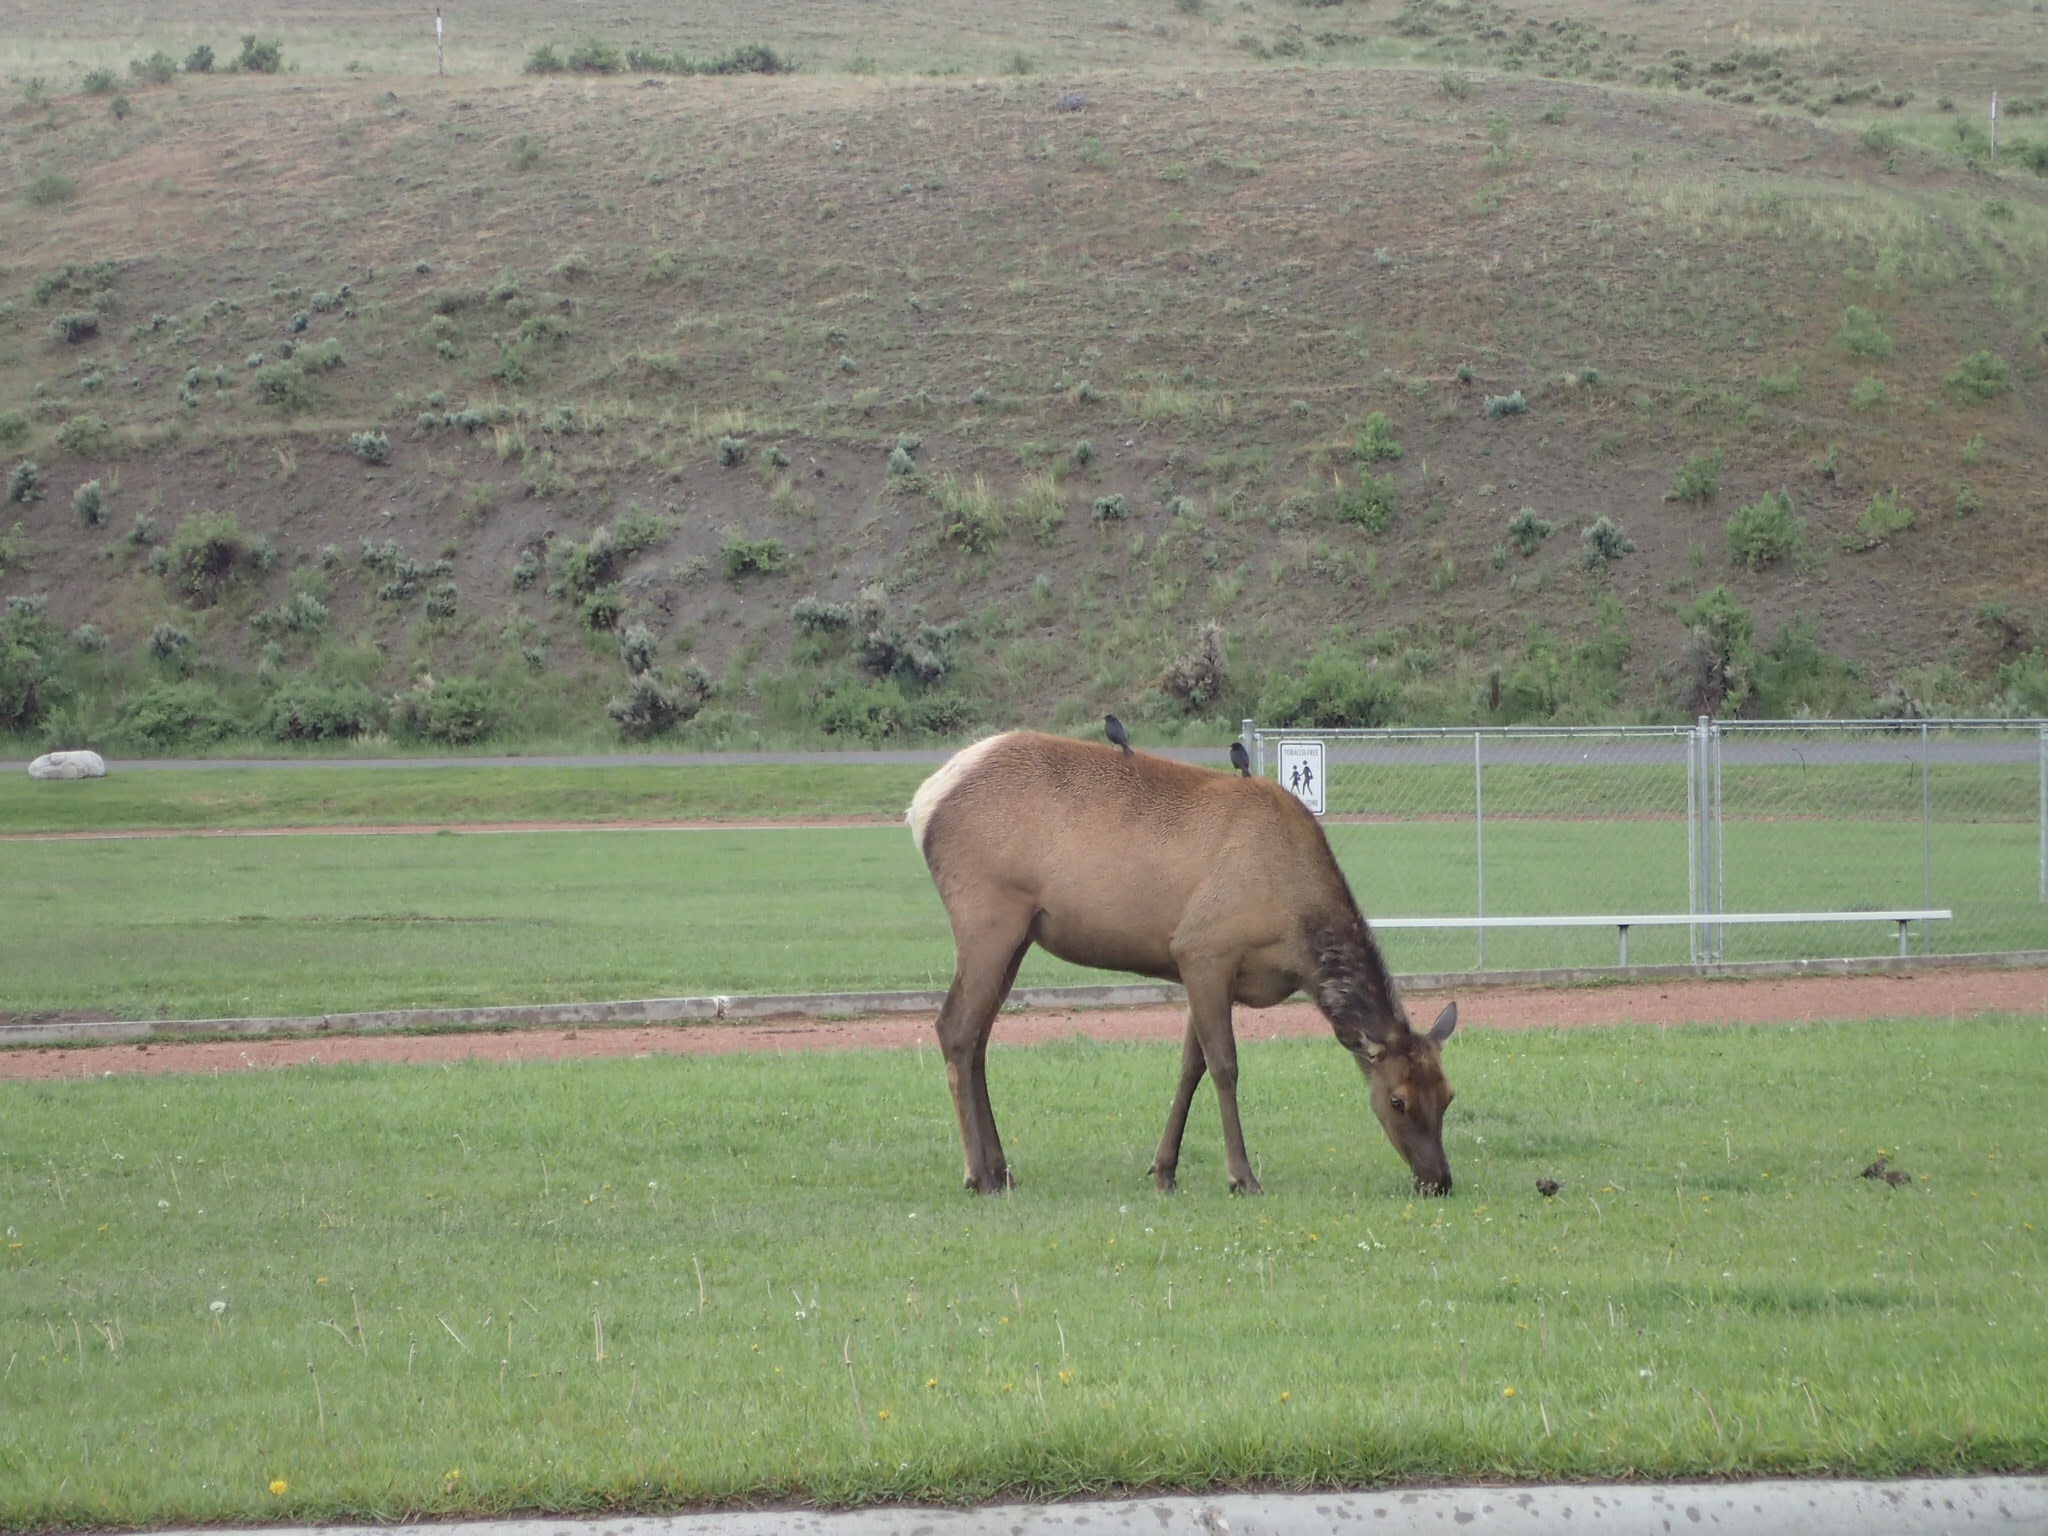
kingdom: Animalia
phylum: Chordata
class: Mammalia
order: Artiodactyla
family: Cervidae
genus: Cervus
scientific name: Cervus elaphus
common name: Red deer
